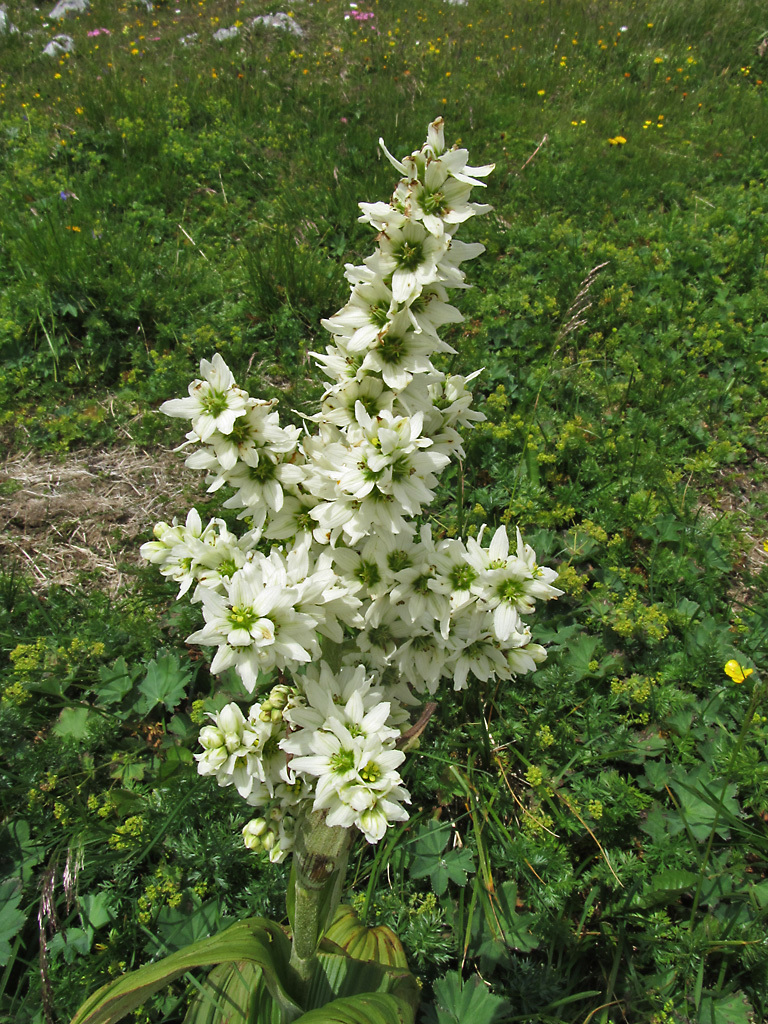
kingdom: Plantae
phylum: Tracheophyta
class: Liliopsida
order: Liliales
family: Melanthiaceae
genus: Veratrum
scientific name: Veratrum album
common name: White veratrum
